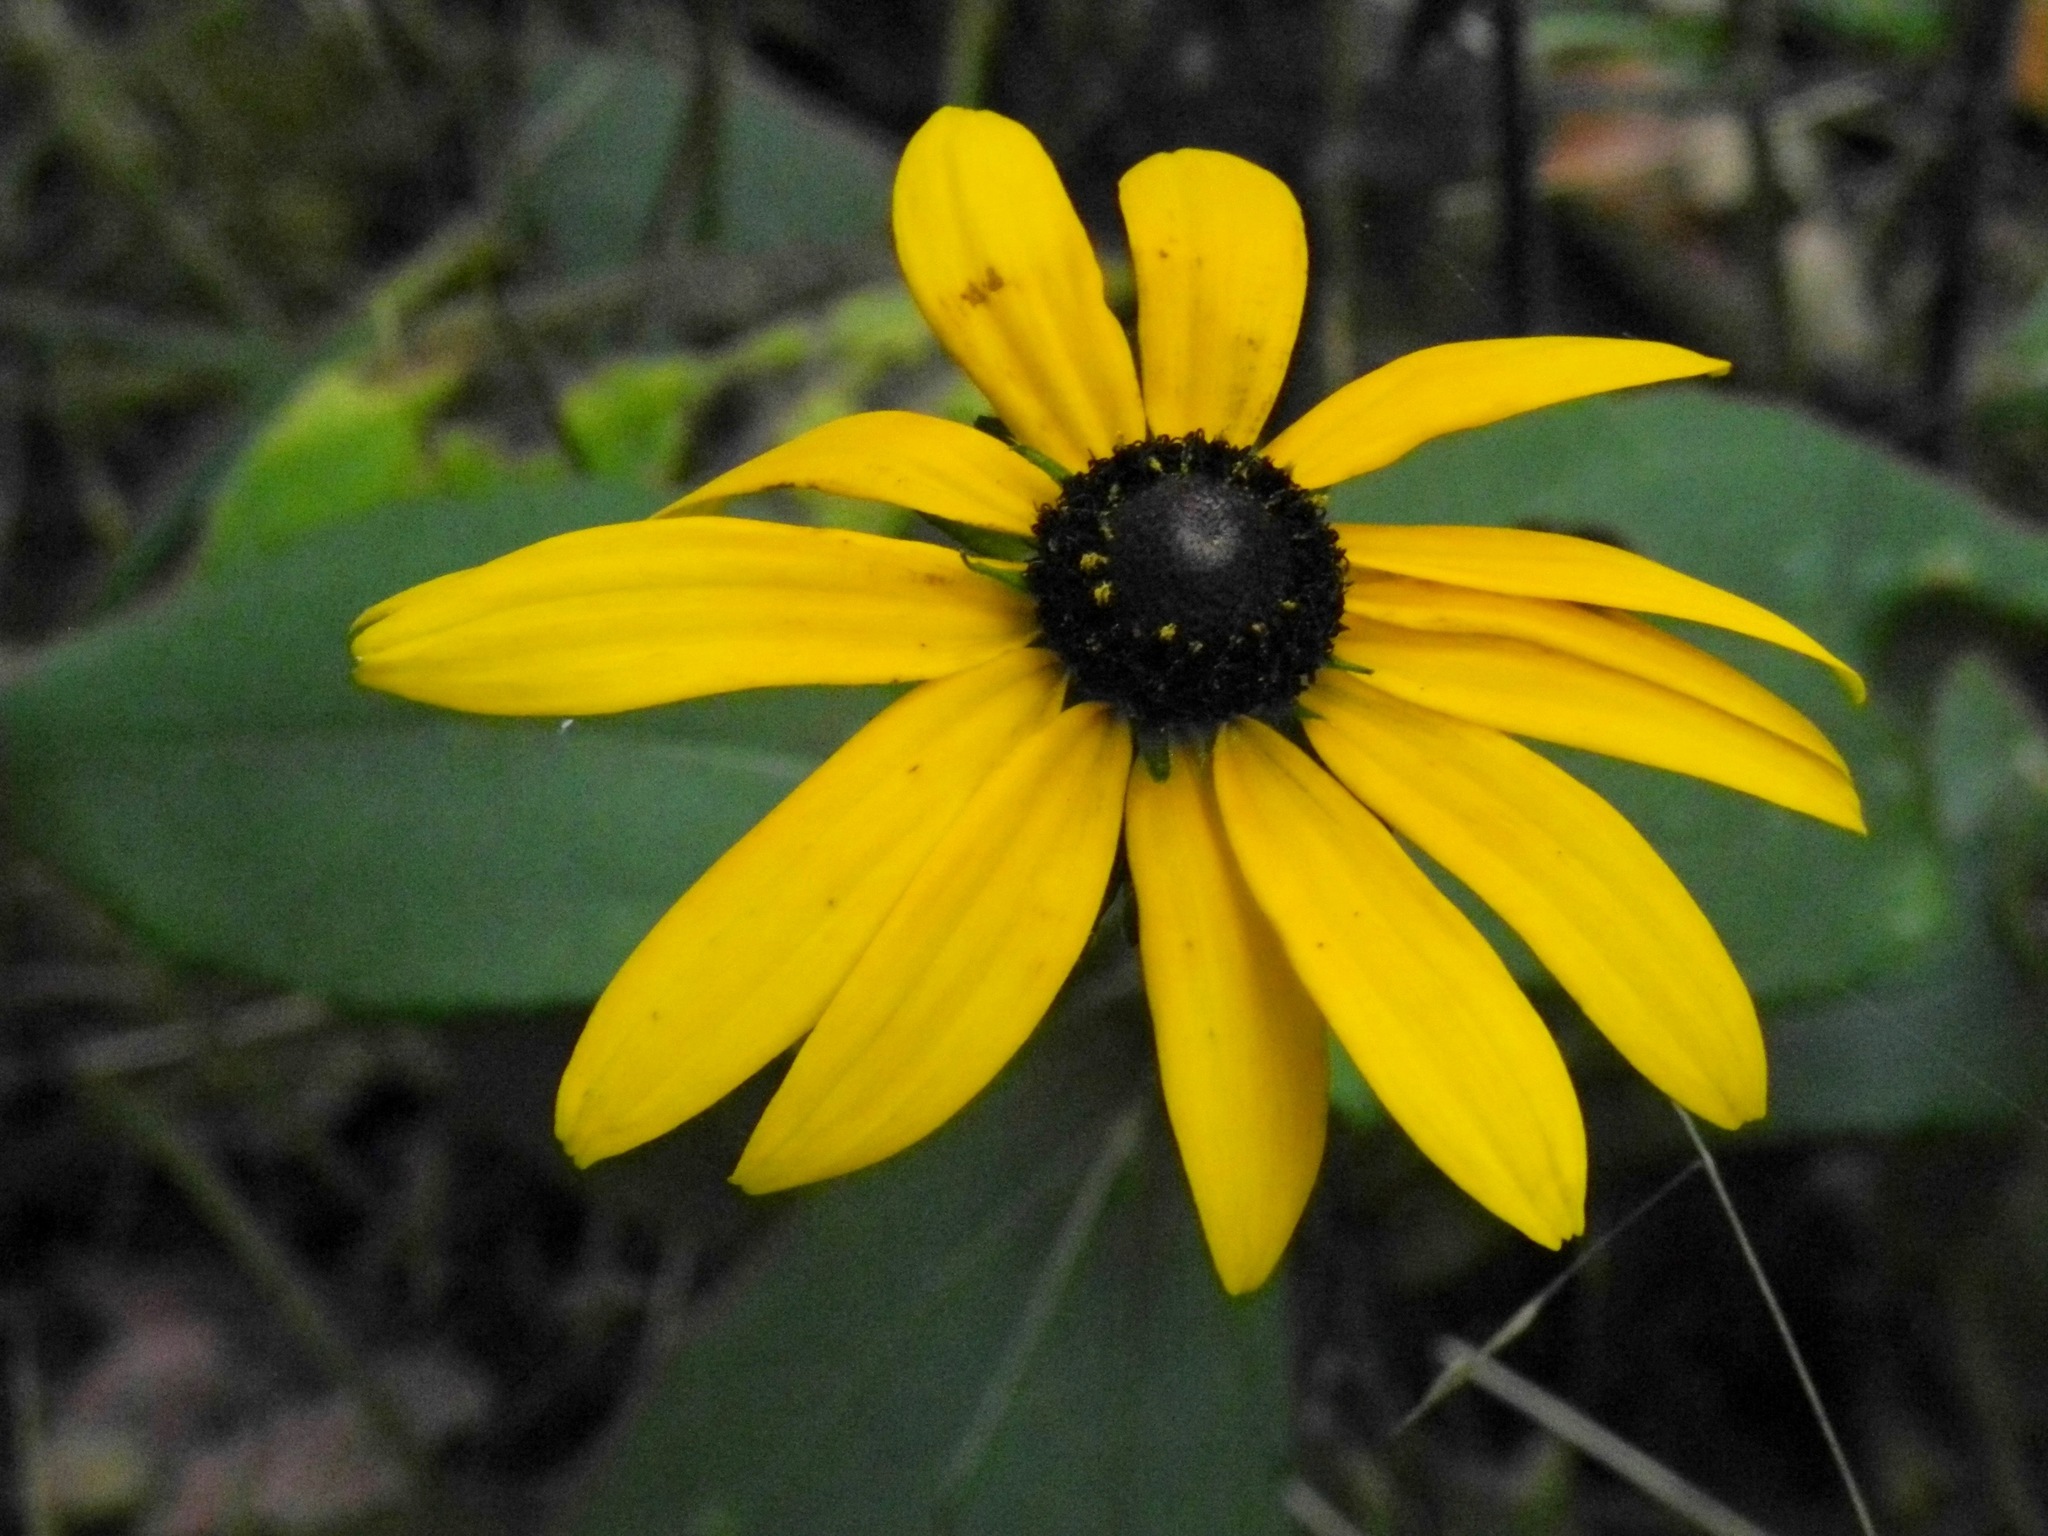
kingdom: Plantae
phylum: Tracheophyta
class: Magnoliopsida
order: Asterales
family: Asteraceae
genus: Rudbeckia
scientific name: Rudbeckia hirta
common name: Black-eyed-susan
